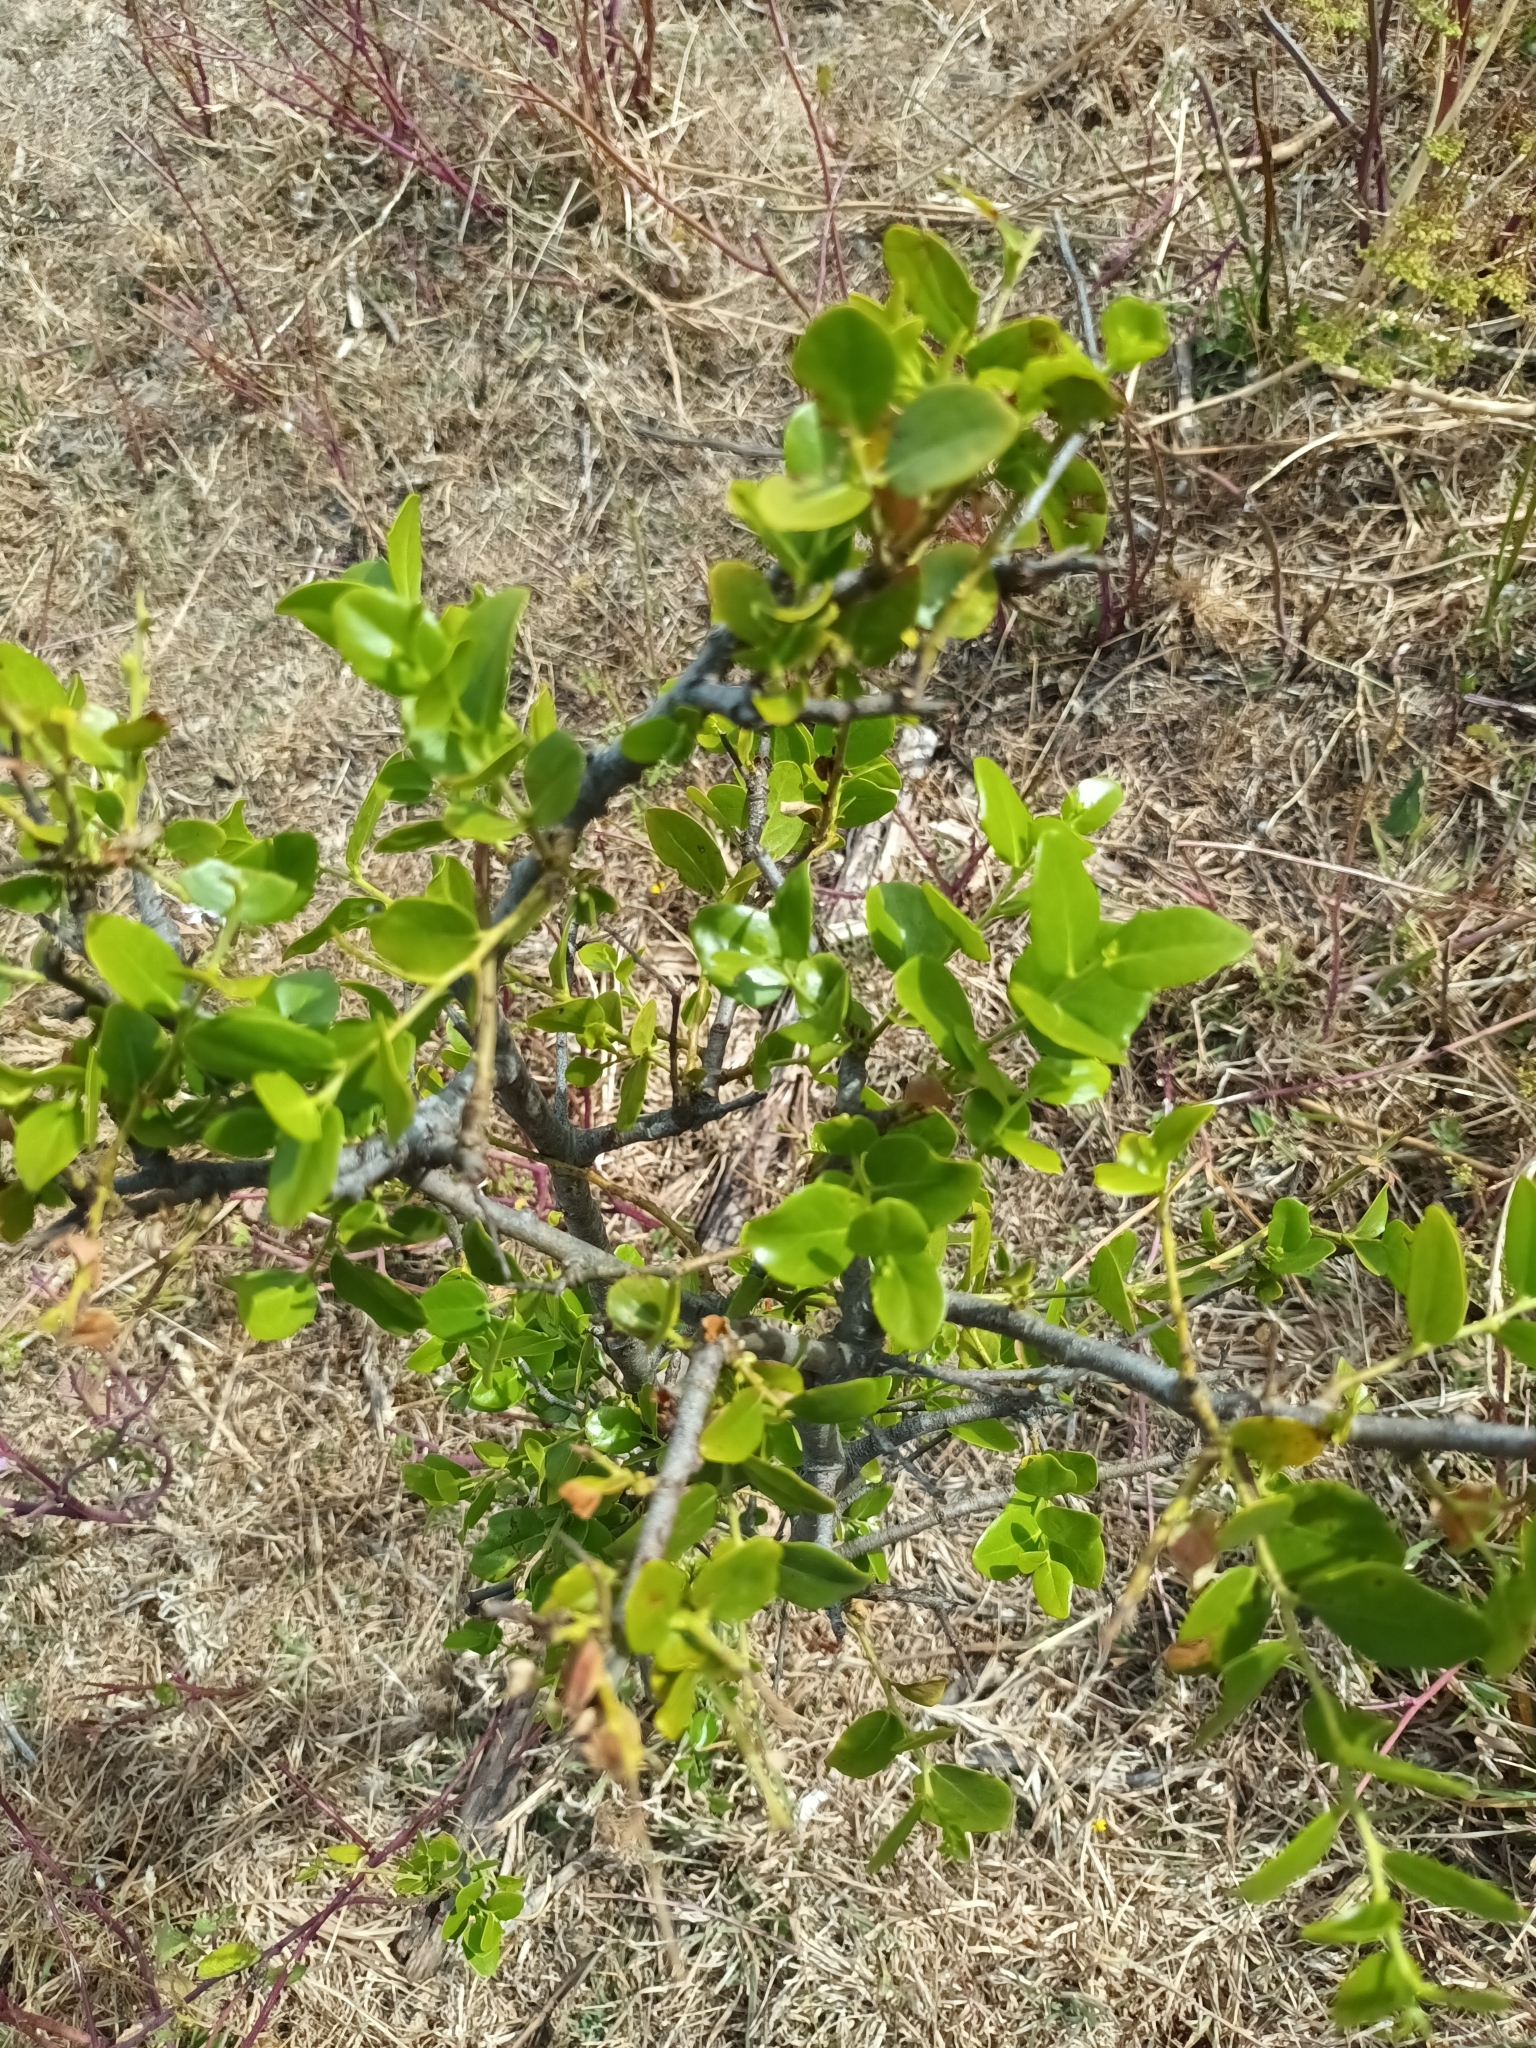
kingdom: Plantae
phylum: Tracheophyta
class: Magnoliopsida
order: Fabales
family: Quillajaceae
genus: Quillaja
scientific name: Quillaja saponaria
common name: Murillo's-bark
